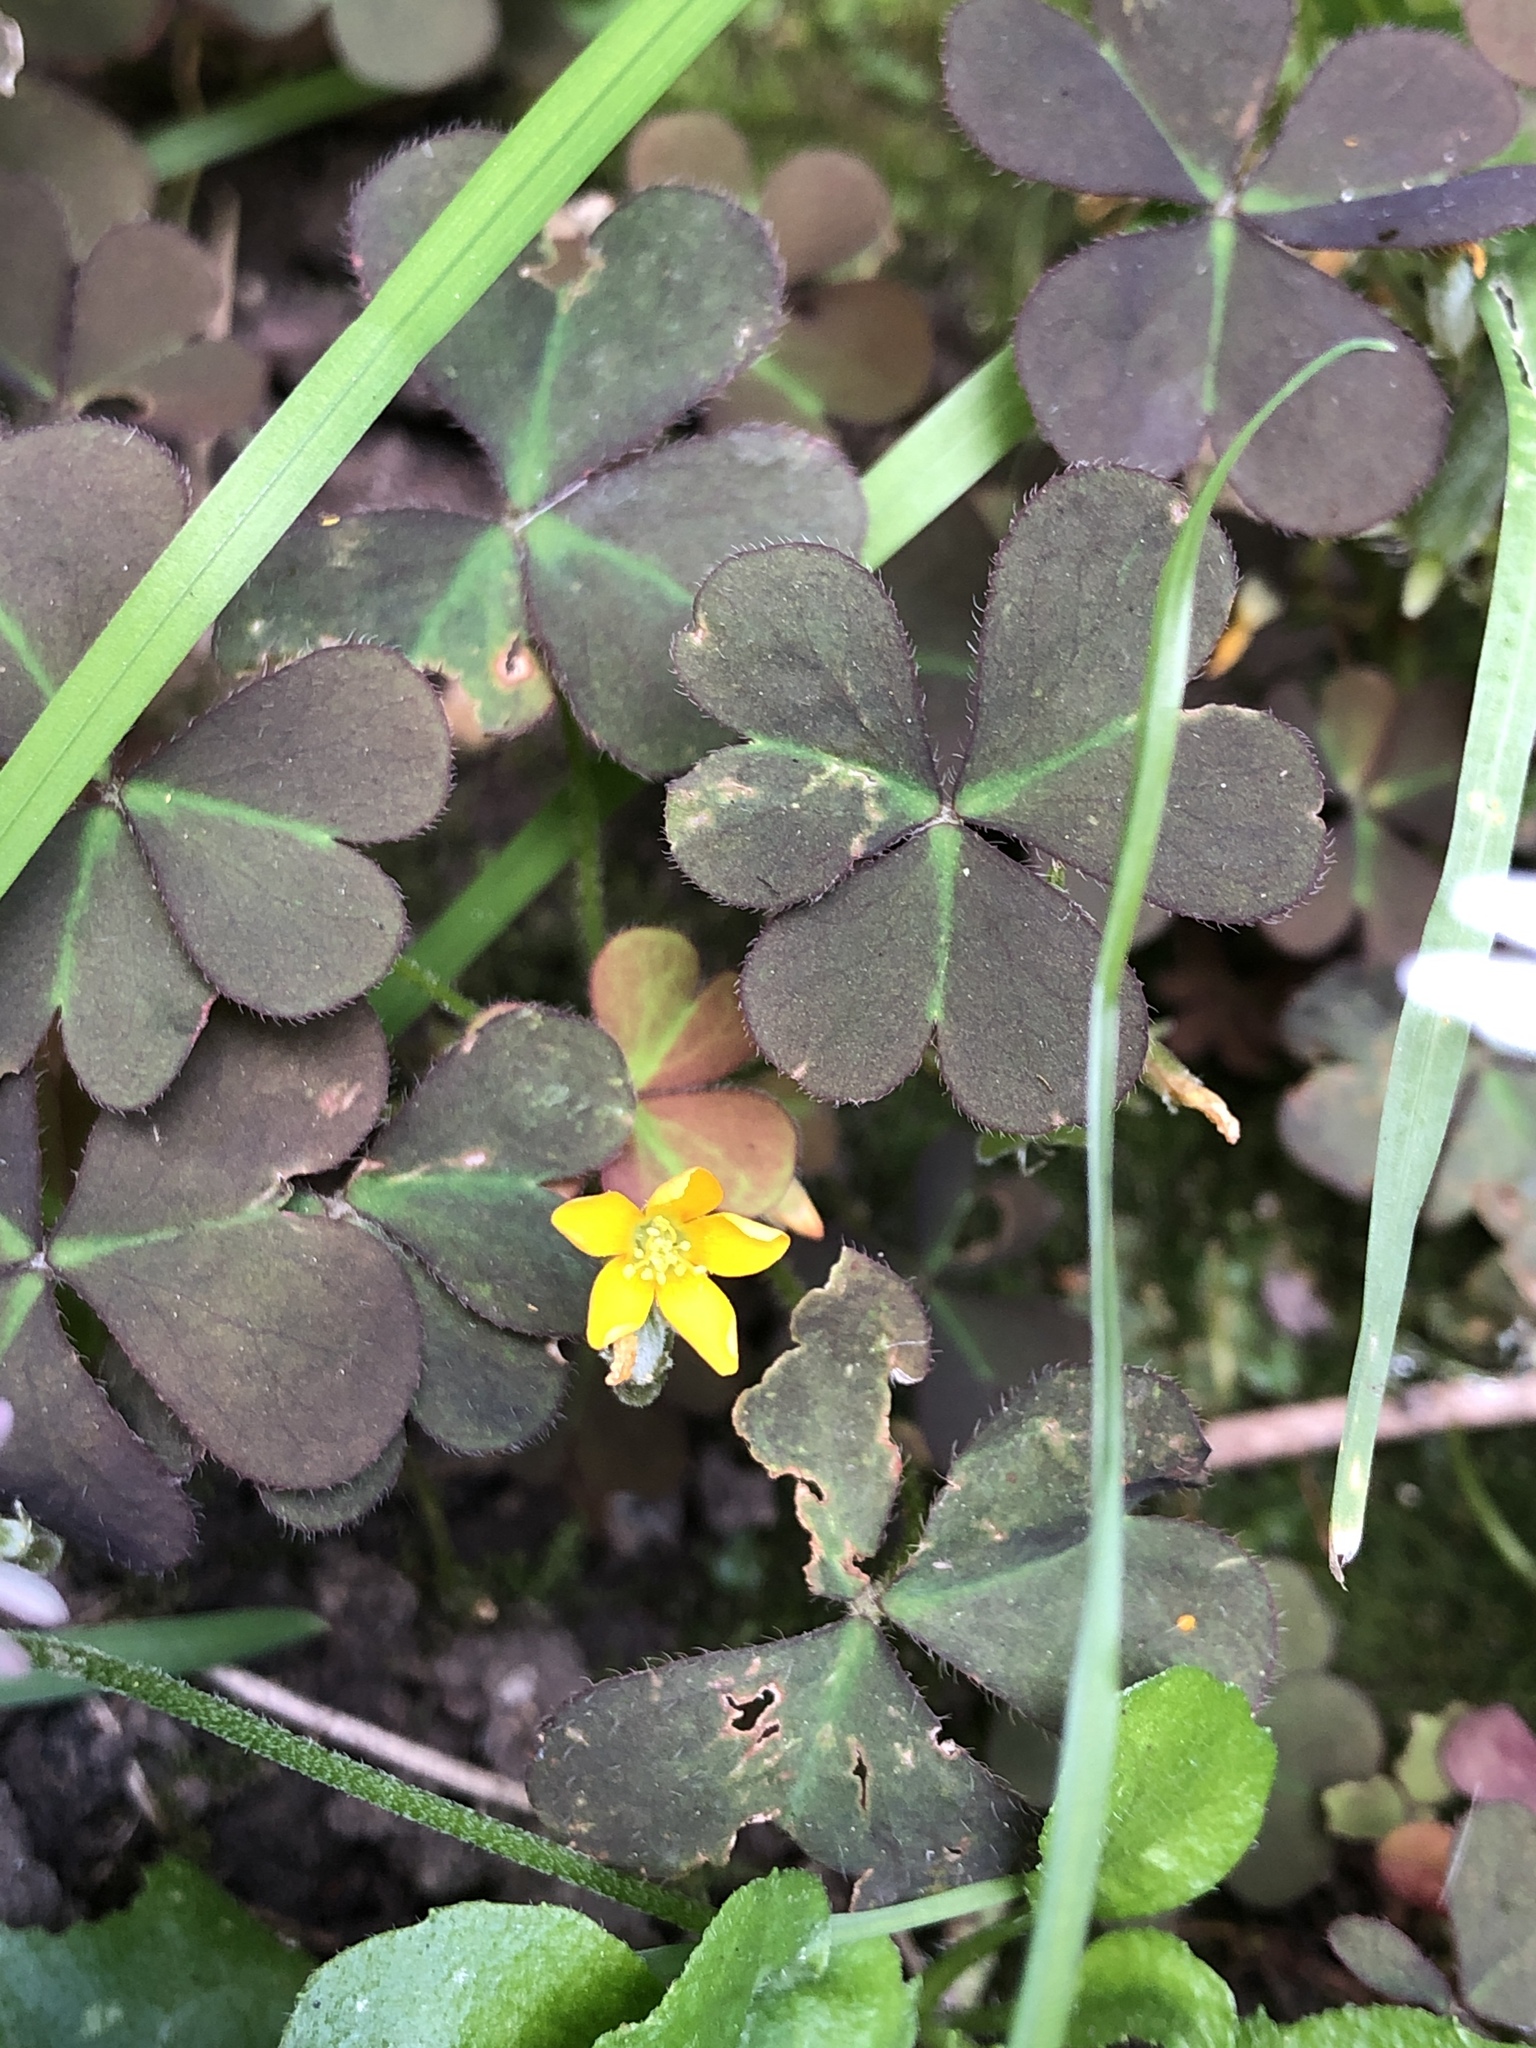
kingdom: Plantae
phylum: Tracheophyta
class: Magnoliopsida
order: Oxalidales
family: Oxalidaceae
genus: Oxalis
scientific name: Oxalis corniculata
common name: Procumbent yellow-sorrel
